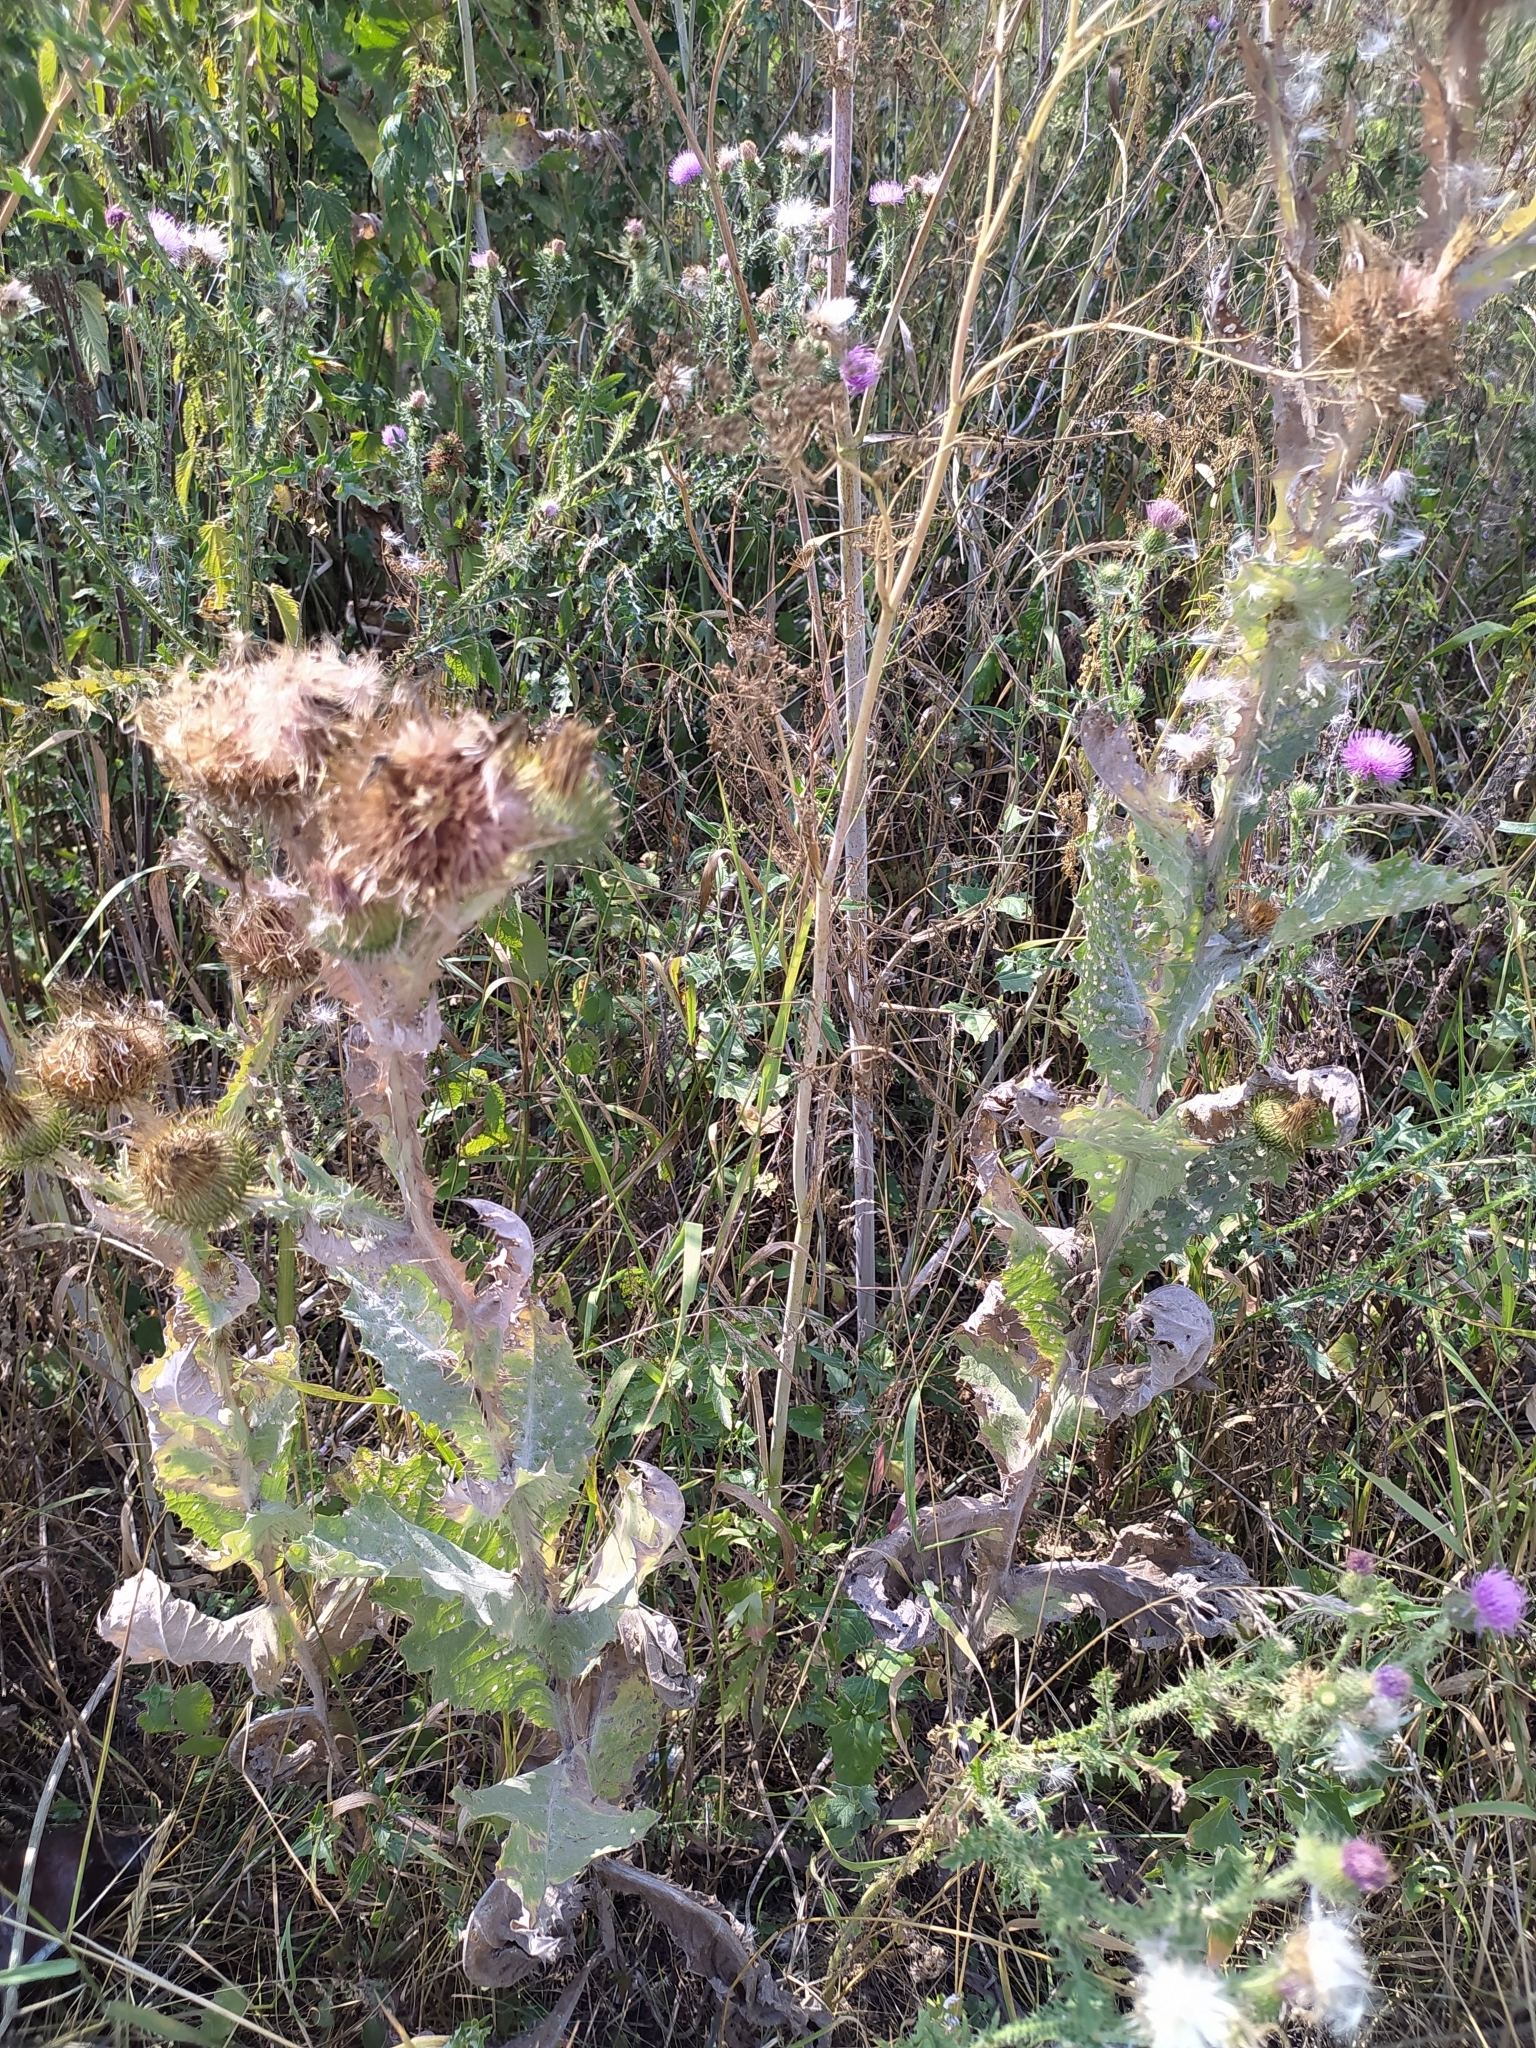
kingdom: Plantae
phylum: Tracheophyta
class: Magnoliopsida
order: Asterales
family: Asteraceae
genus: Onopordum
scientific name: Onopordum acanthium
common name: Scotch thistle
